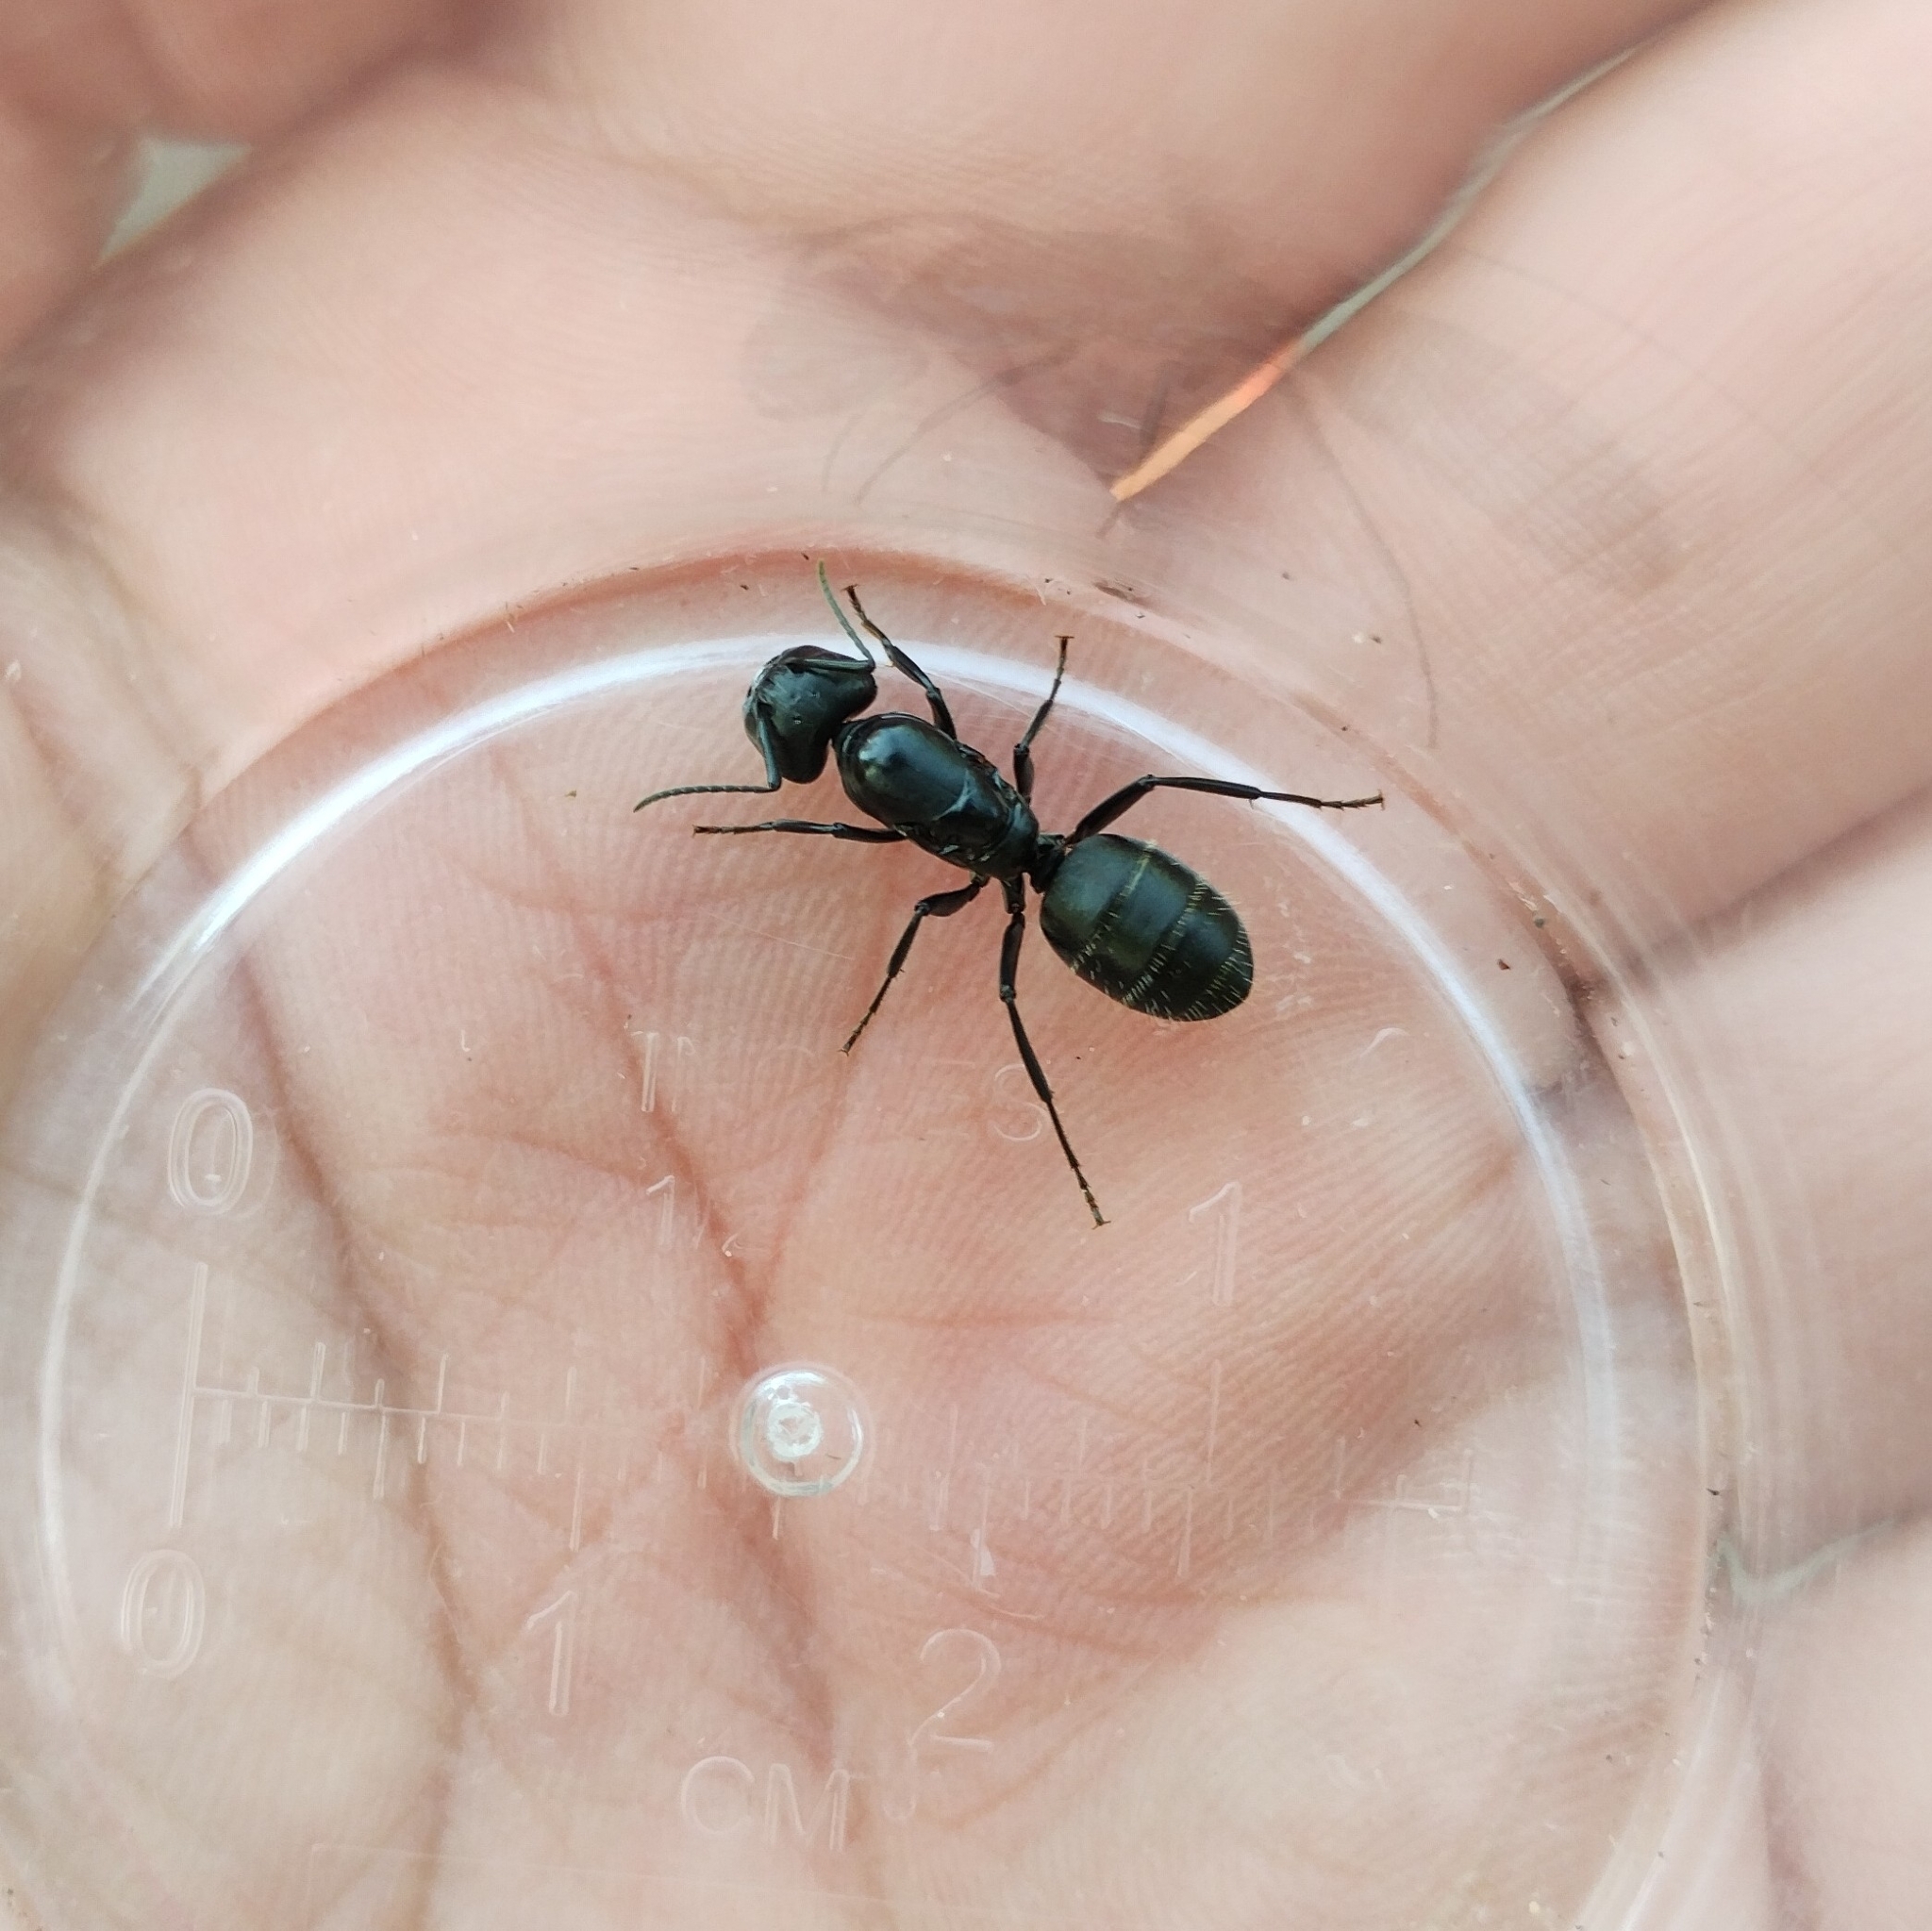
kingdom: Animalia
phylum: Arthropoda
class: Insecta
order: Hymenoptera
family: Formicidae
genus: Camponotus
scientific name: Camponotus vagus
